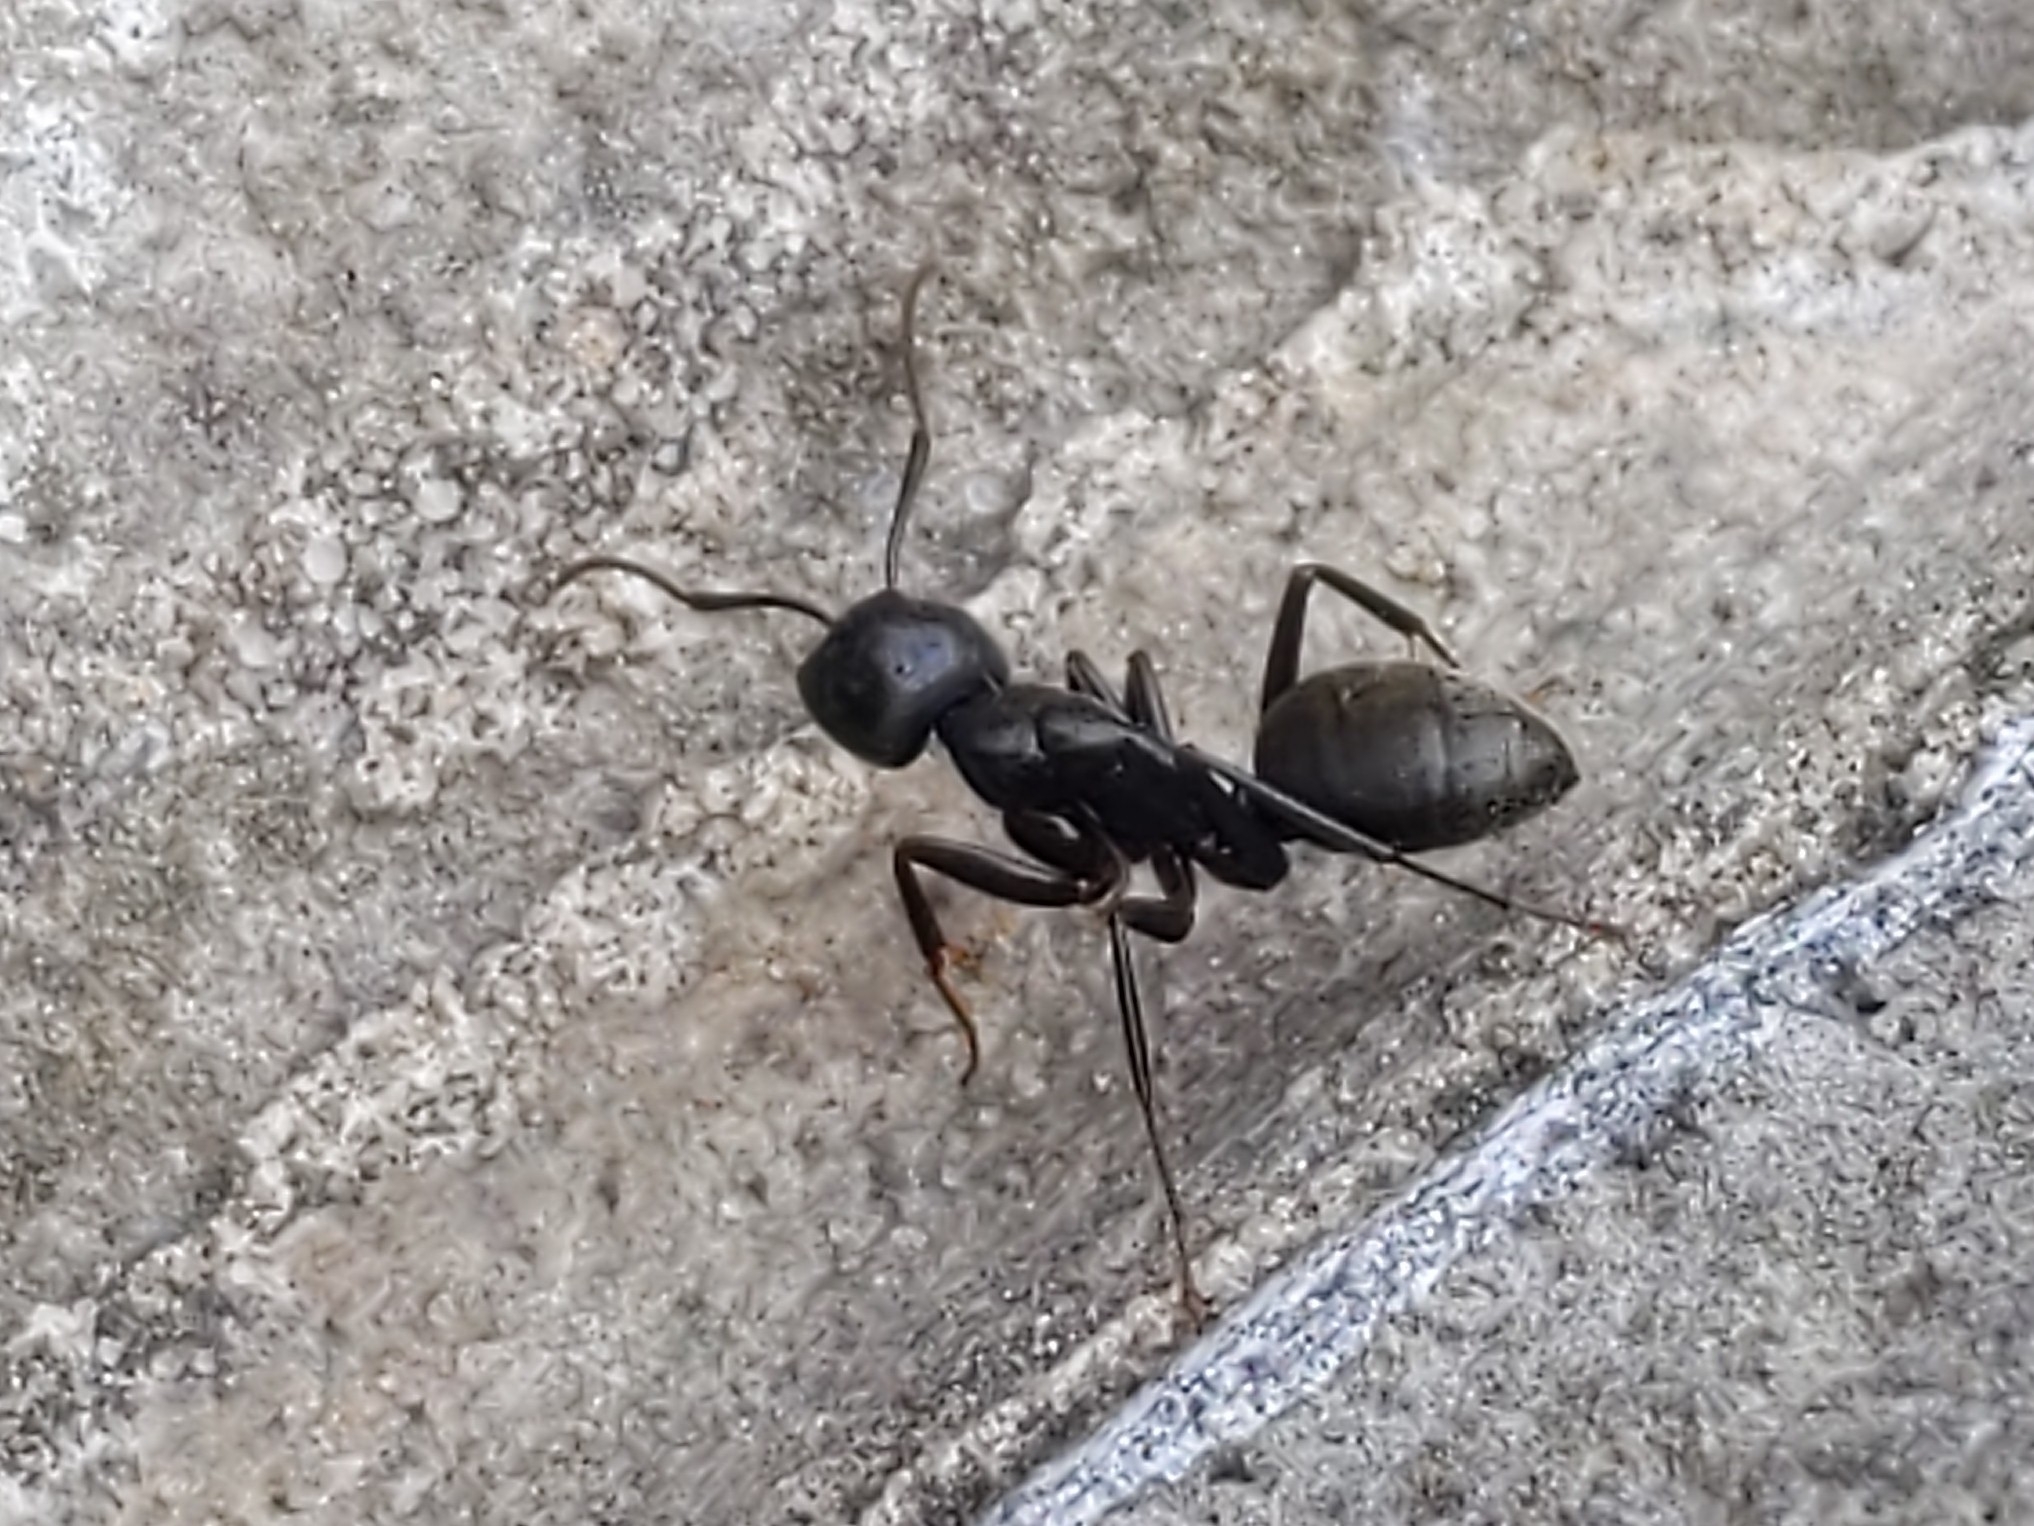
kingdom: Animalia
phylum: Arthropoda
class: Insecta
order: Hymenoptera
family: Formicidae
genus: Camponotus
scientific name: Camponotus pennsylvanicus
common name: Black carpenter ant
